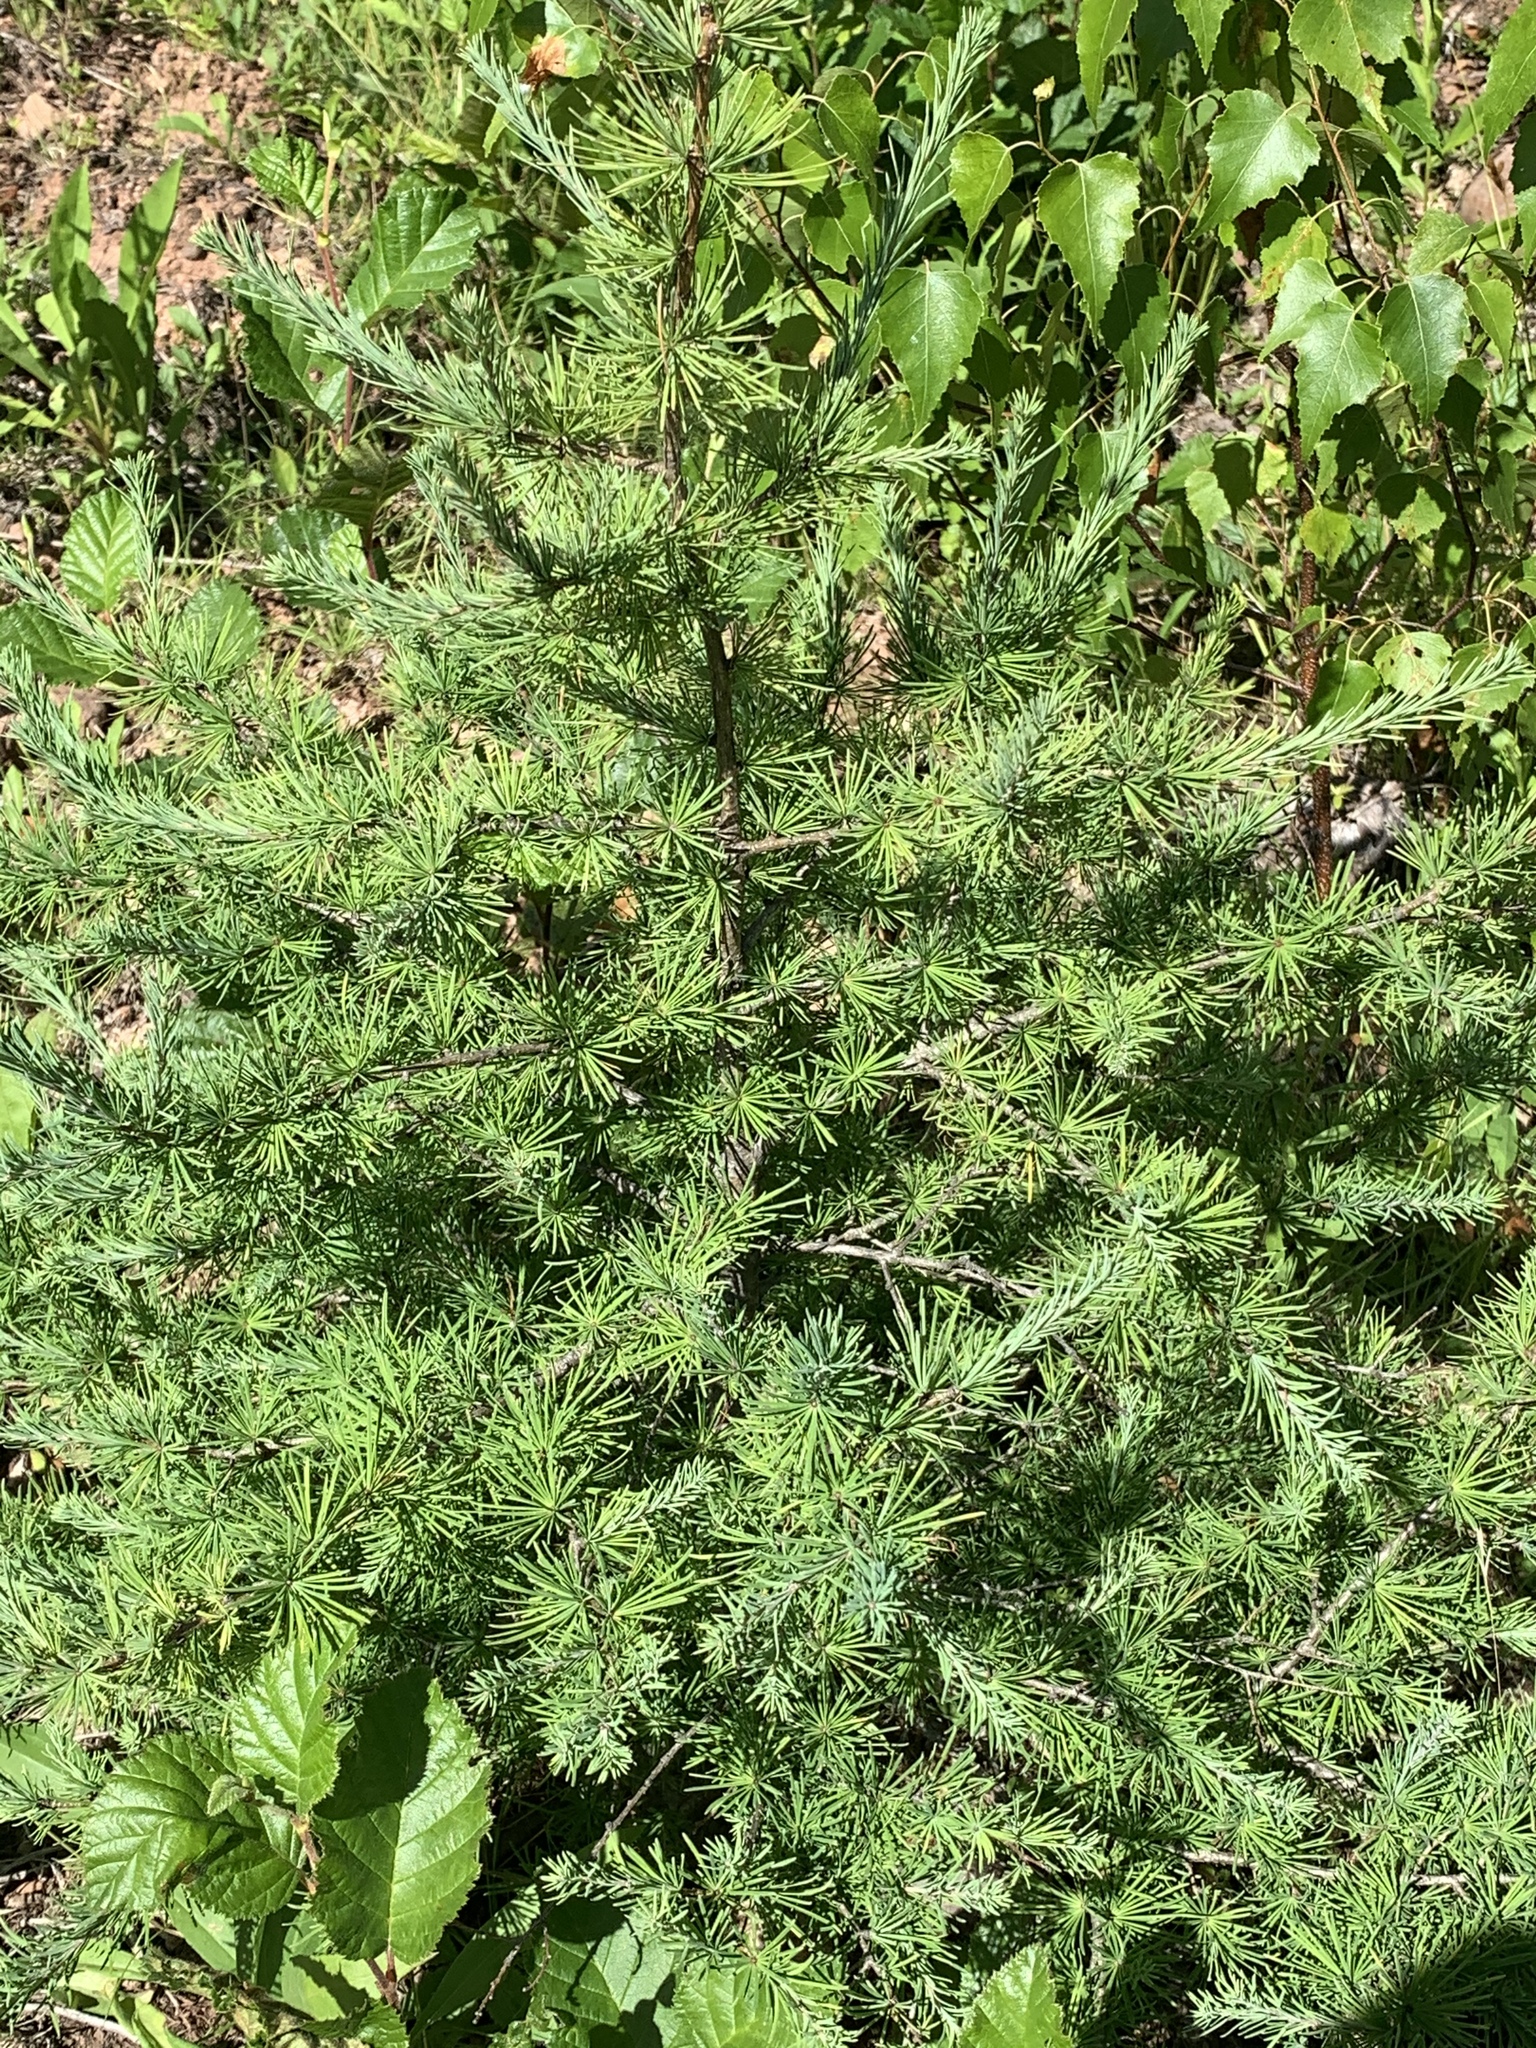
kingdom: Plantae
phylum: Tracheophyta
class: Pinopsida
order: Pinales
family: Pinaceae
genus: Larix
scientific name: Larix laricina
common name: American larch
